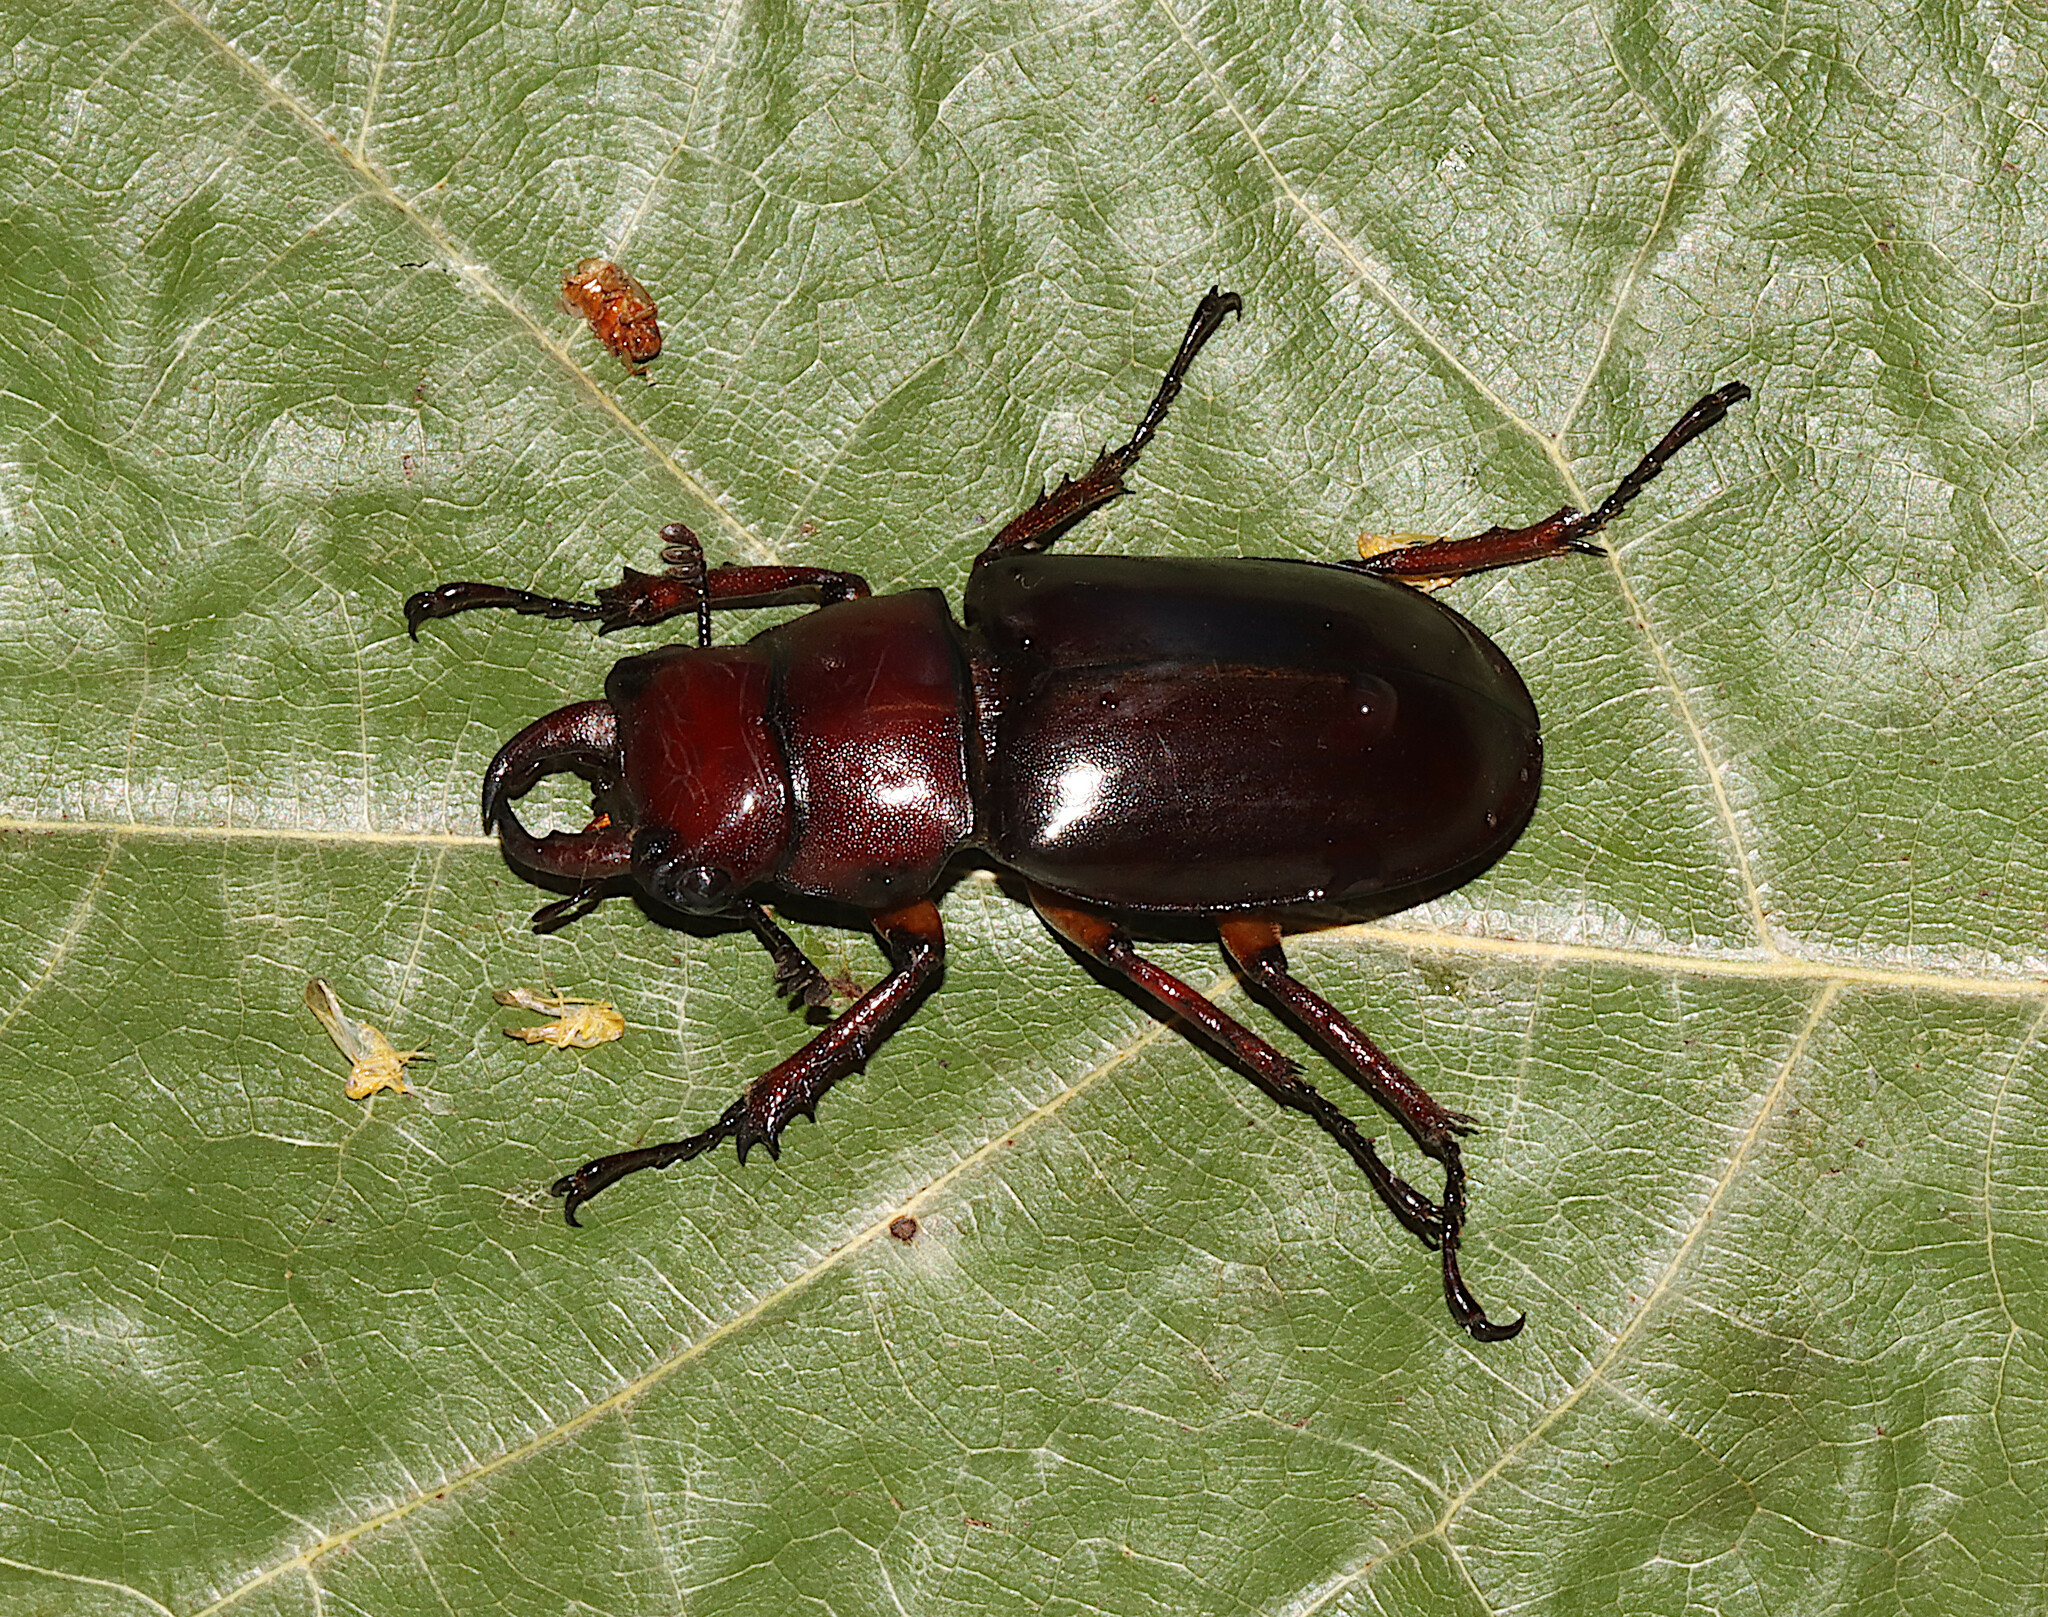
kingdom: Animalia
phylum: Arthropoda
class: Insecta
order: Coleoptera
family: Lucanidae
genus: Lucanus
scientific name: Lucanus capreolus
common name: Stag beetle
